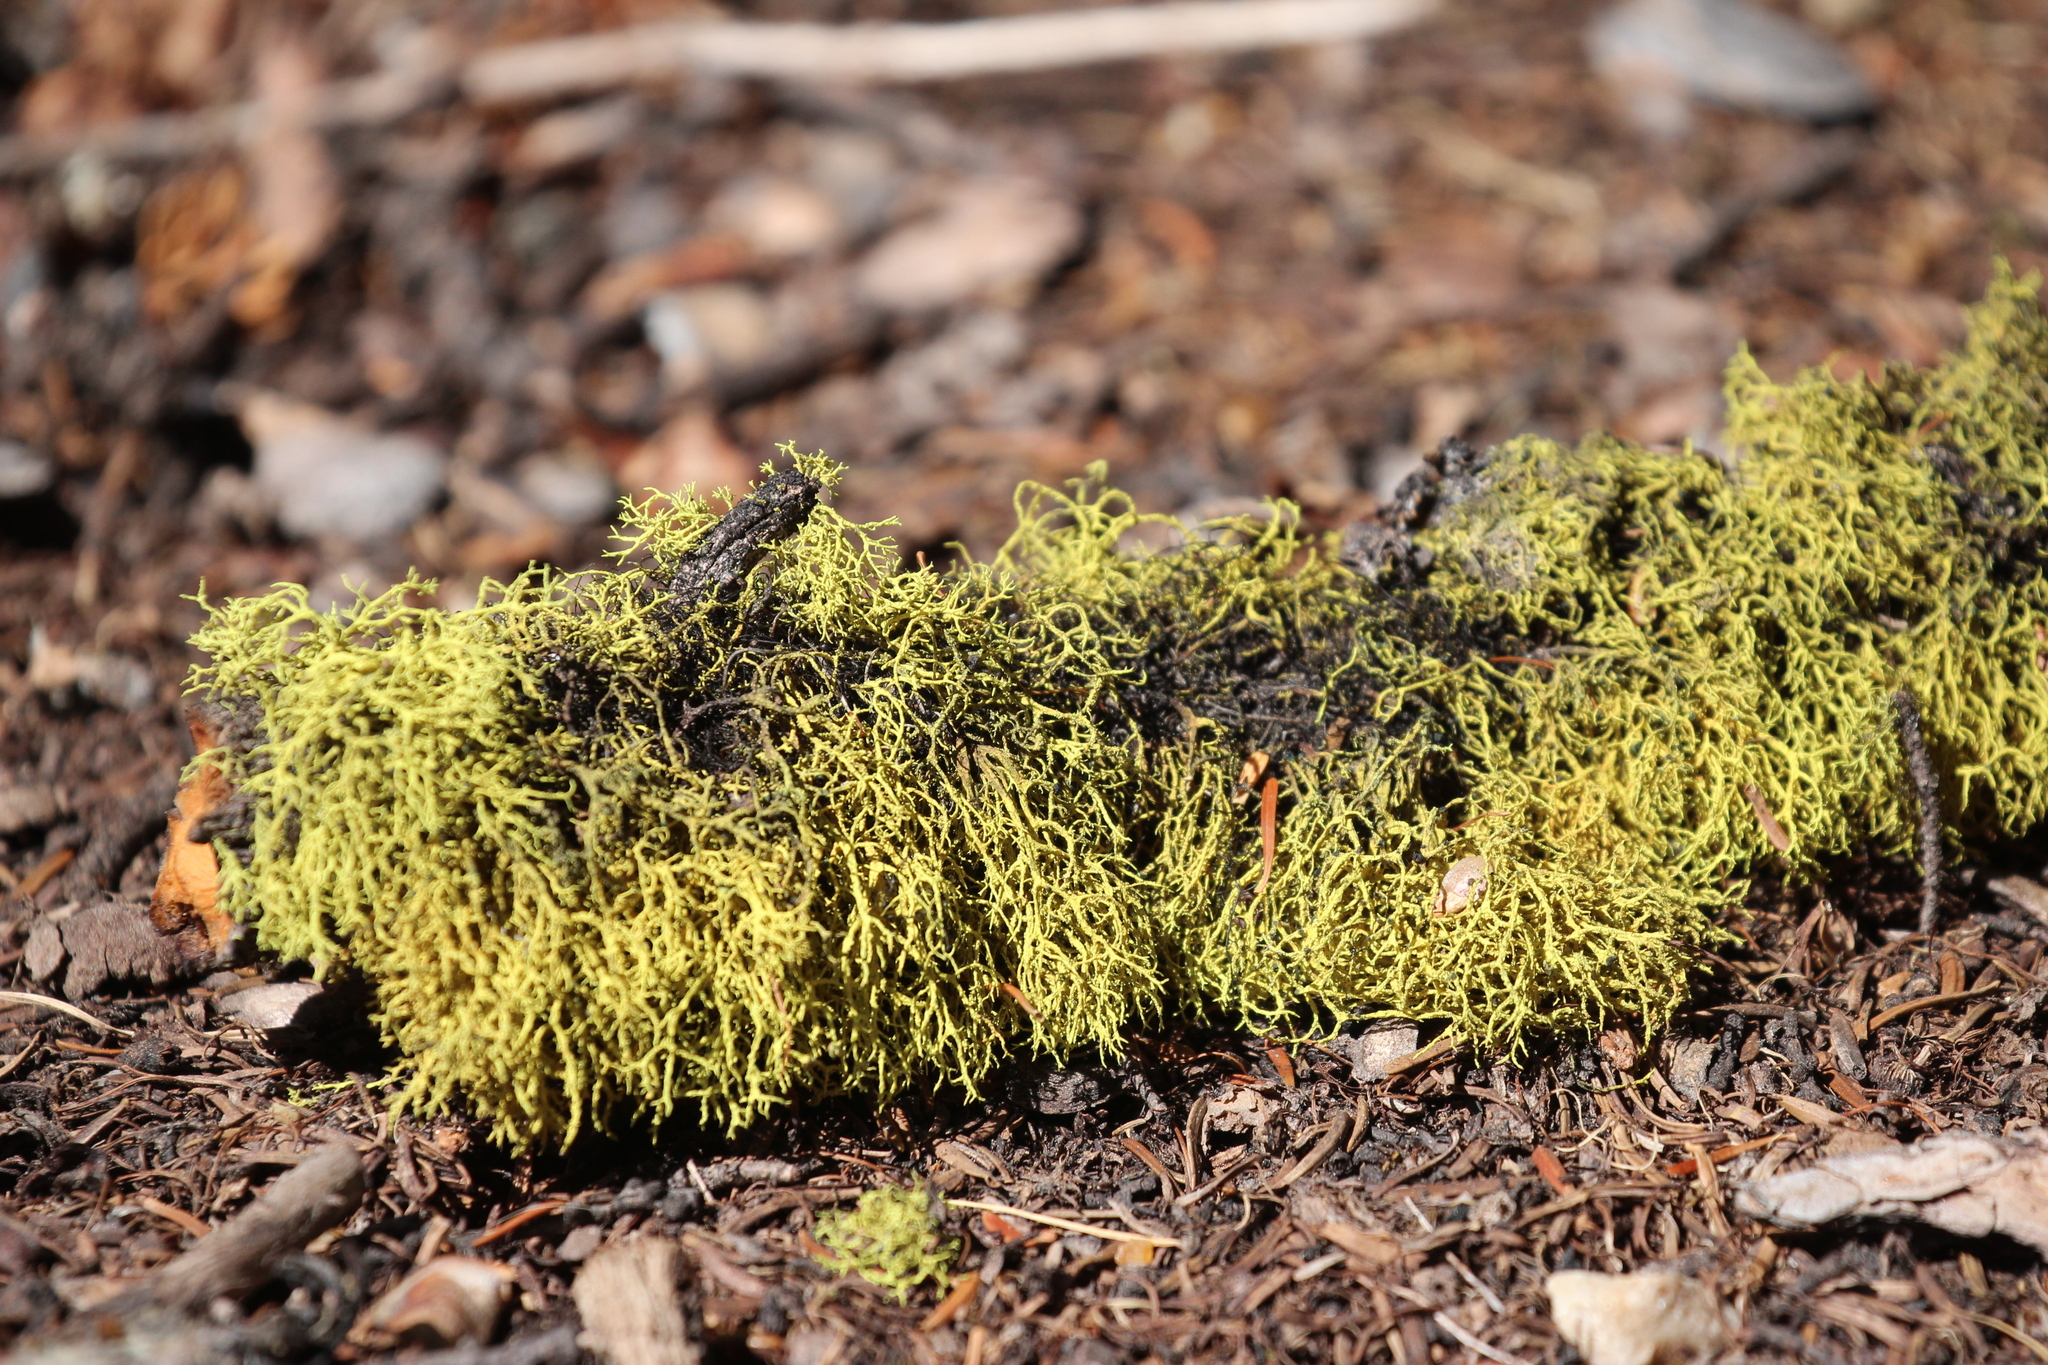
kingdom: Fungi
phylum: Ascomycota
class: Lecanoromycetes
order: Lecanorales
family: Parmeliaceae
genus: Letharia
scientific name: Letharia vulpina
